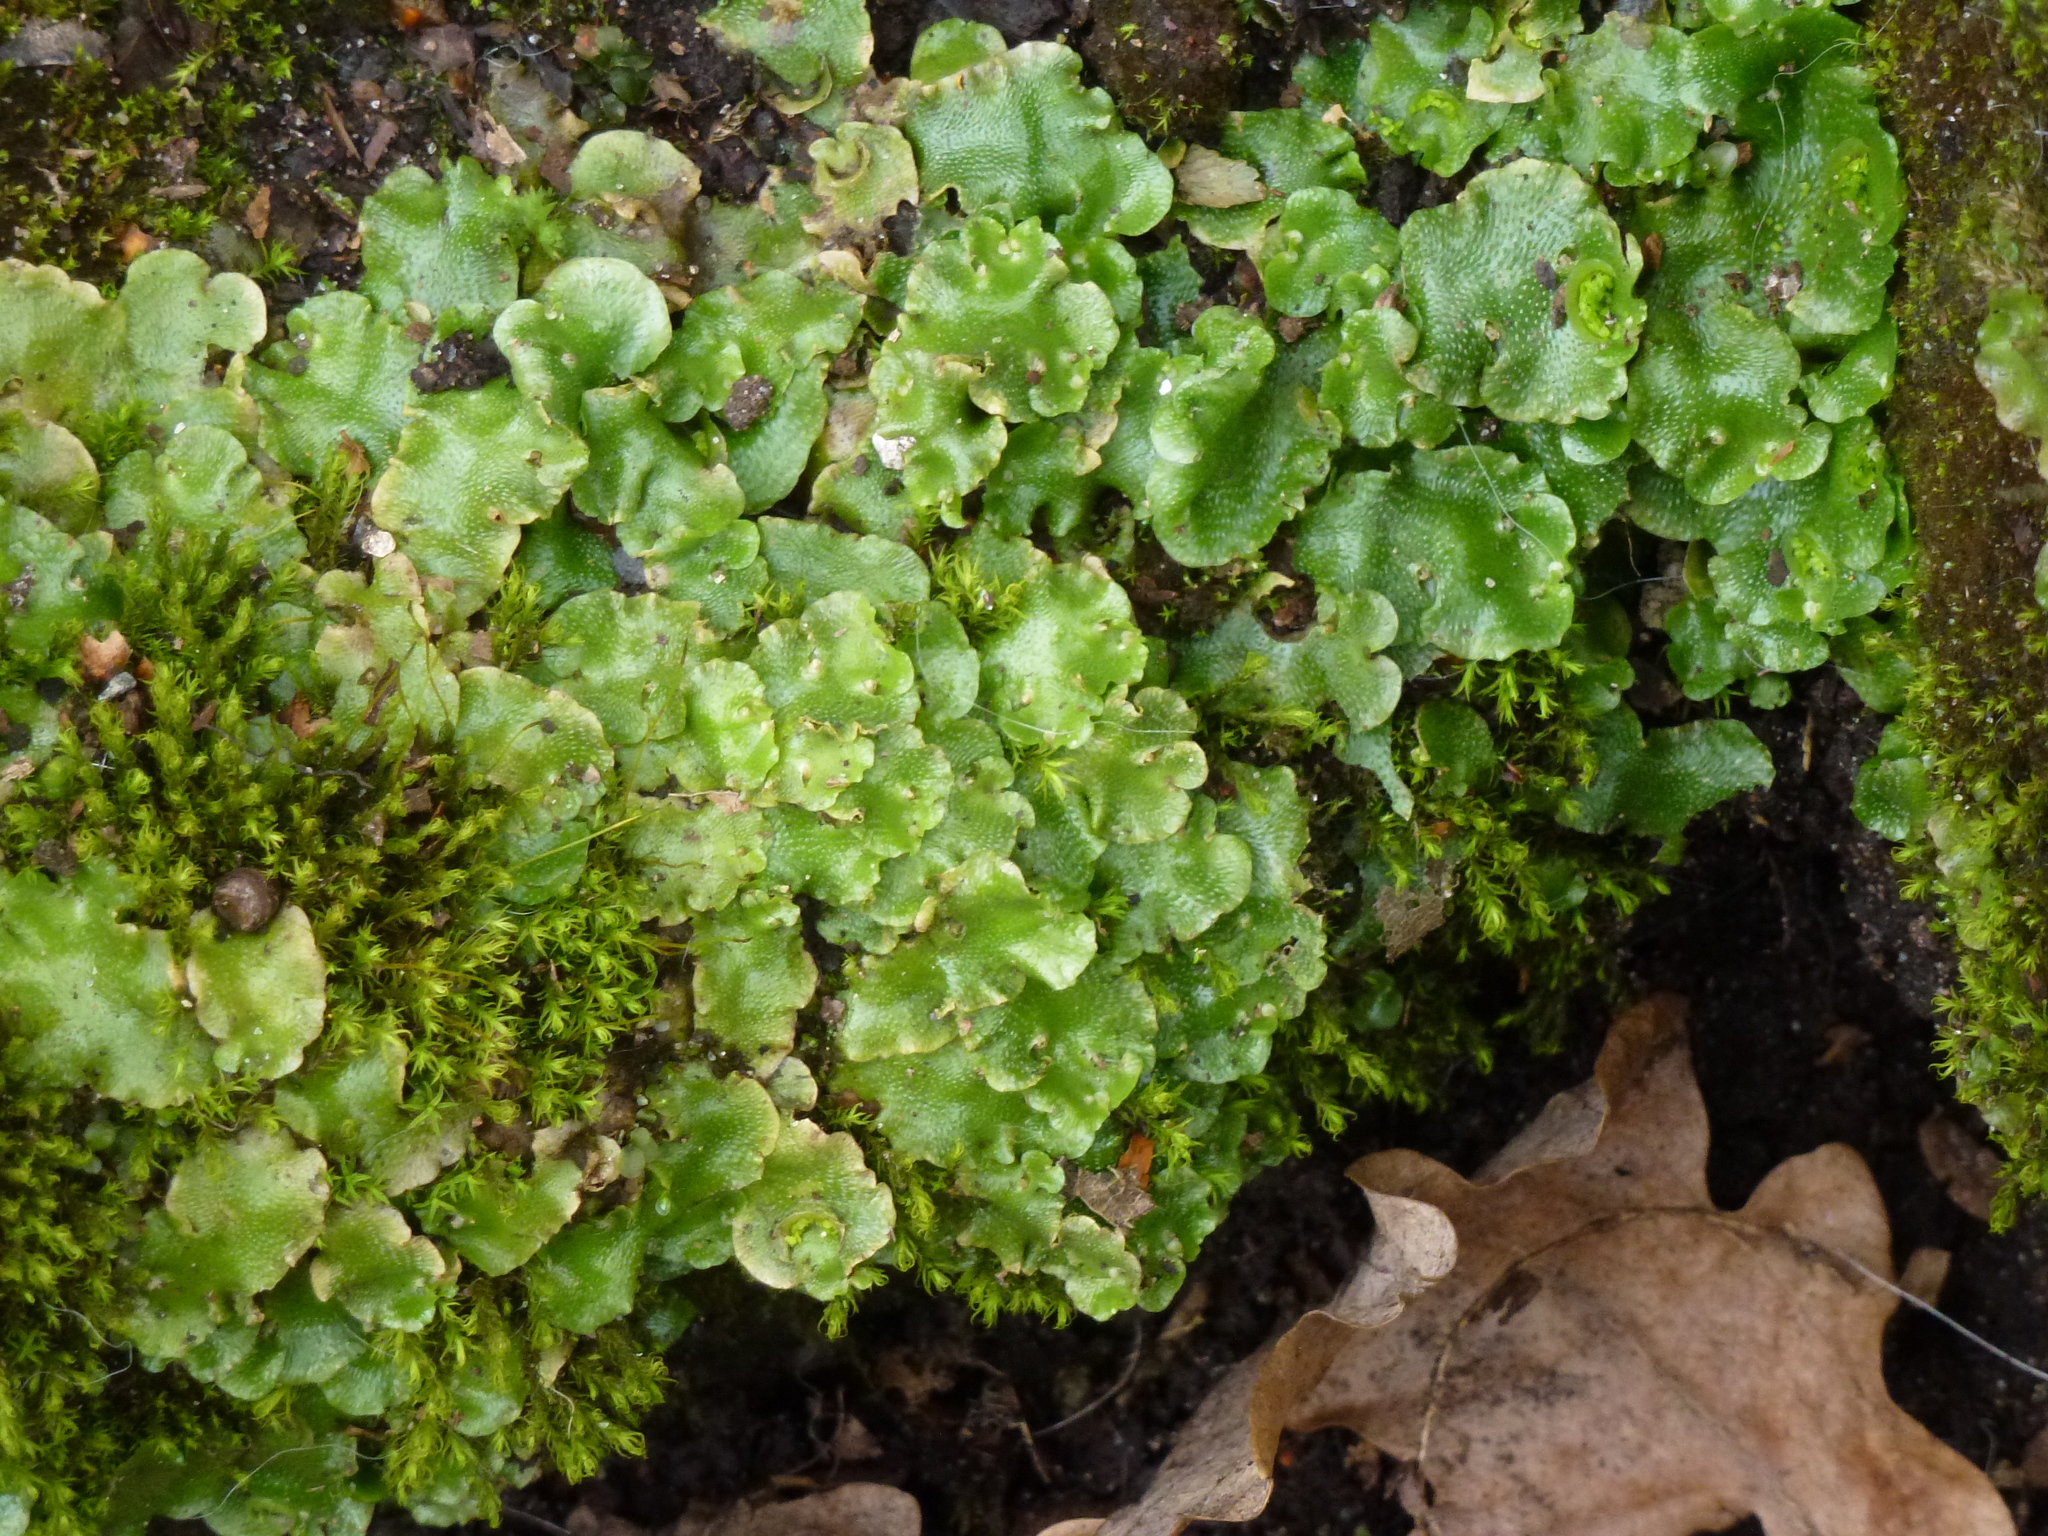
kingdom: Plantae
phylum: Marchantiophyta
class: Marchantiopsida
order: Lunulariales
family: Lunulariaceae
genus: Lunularia
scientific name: Lunularia cruciata
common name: Crescent-cup liverwort
